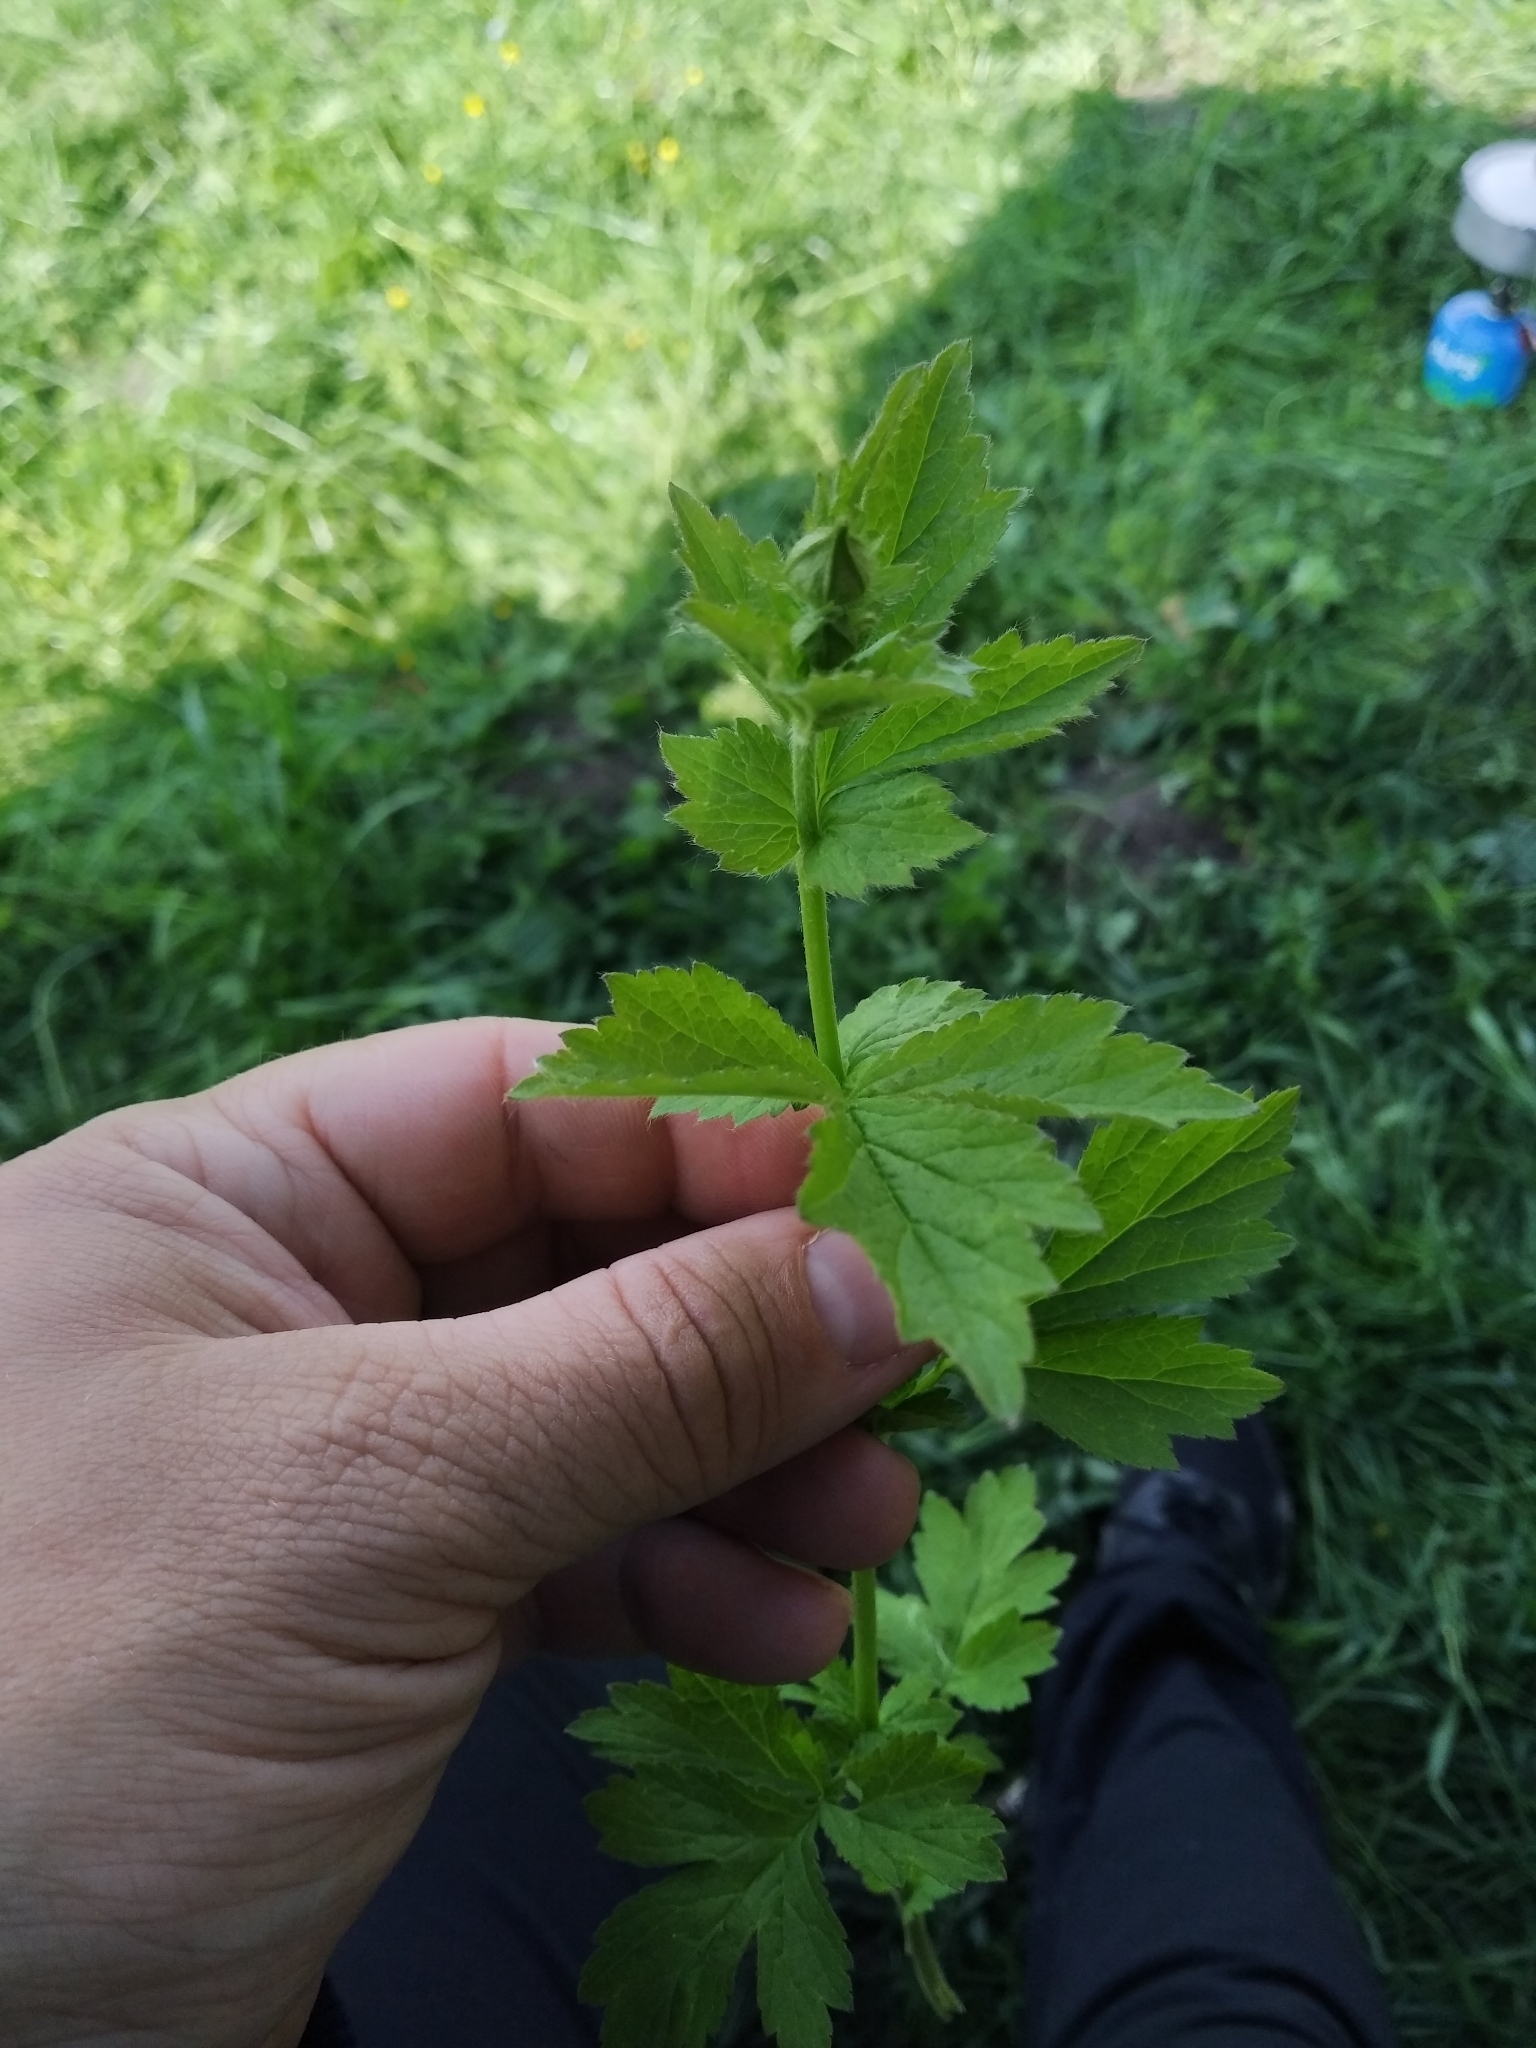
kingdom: Plantae
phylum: Tracheophyta
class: Magnoliopsida
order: Rosales
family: Rosaceae
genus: Geum
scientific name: Geum urbanum
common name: Wood avens
